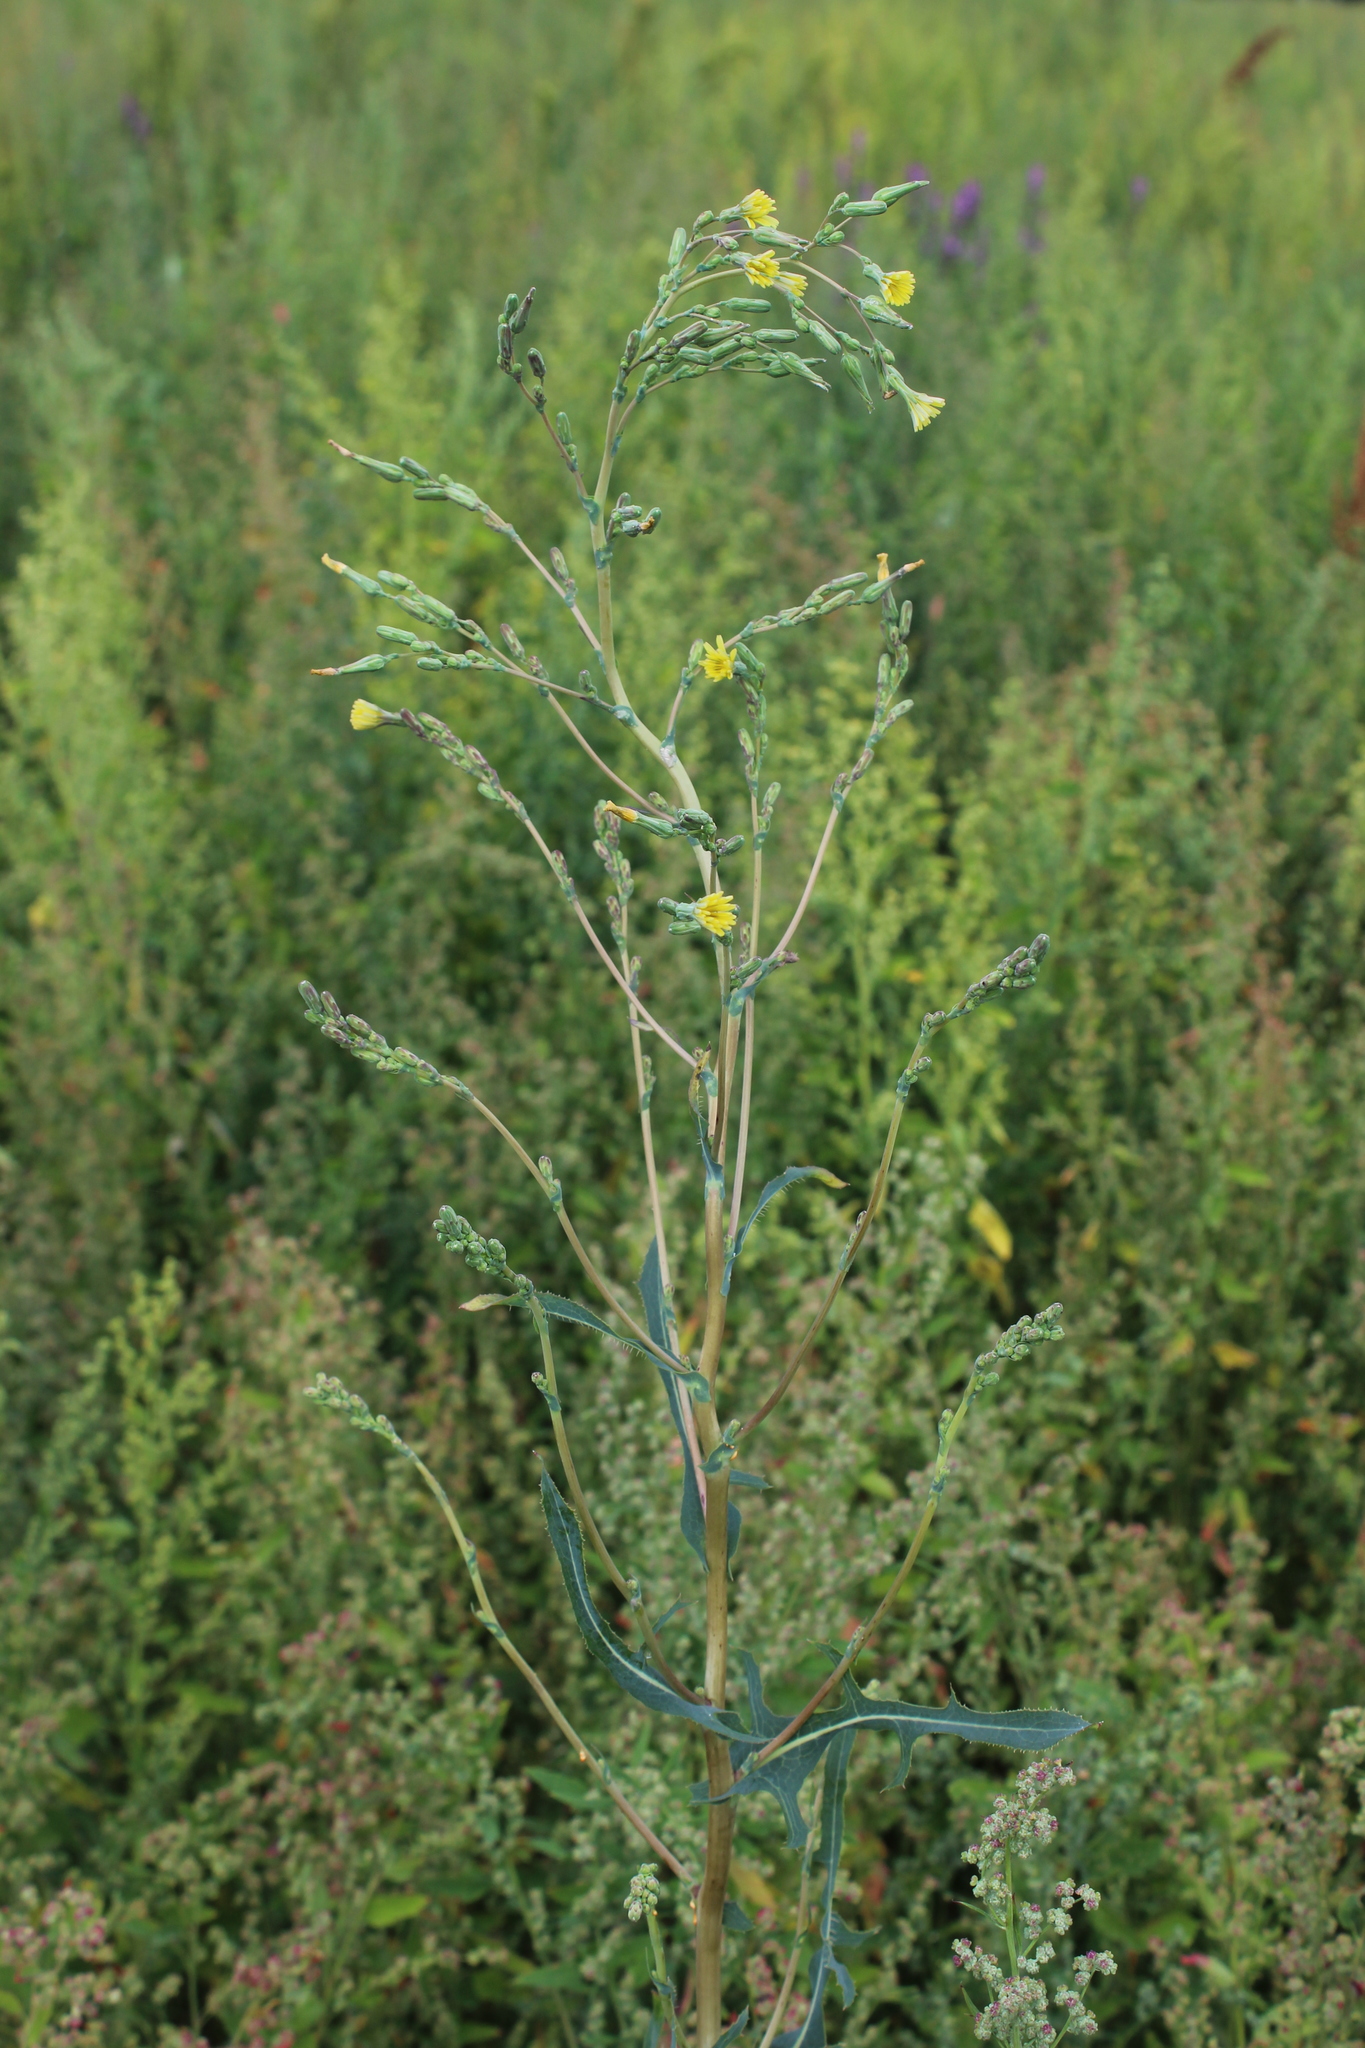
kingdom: Plantae
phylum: Tracheophyta
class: Magnoliopsida
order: Asterales
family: Asteraceae
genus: Lactuca
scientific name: Lactuca serriola
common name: Prickly lettuce
